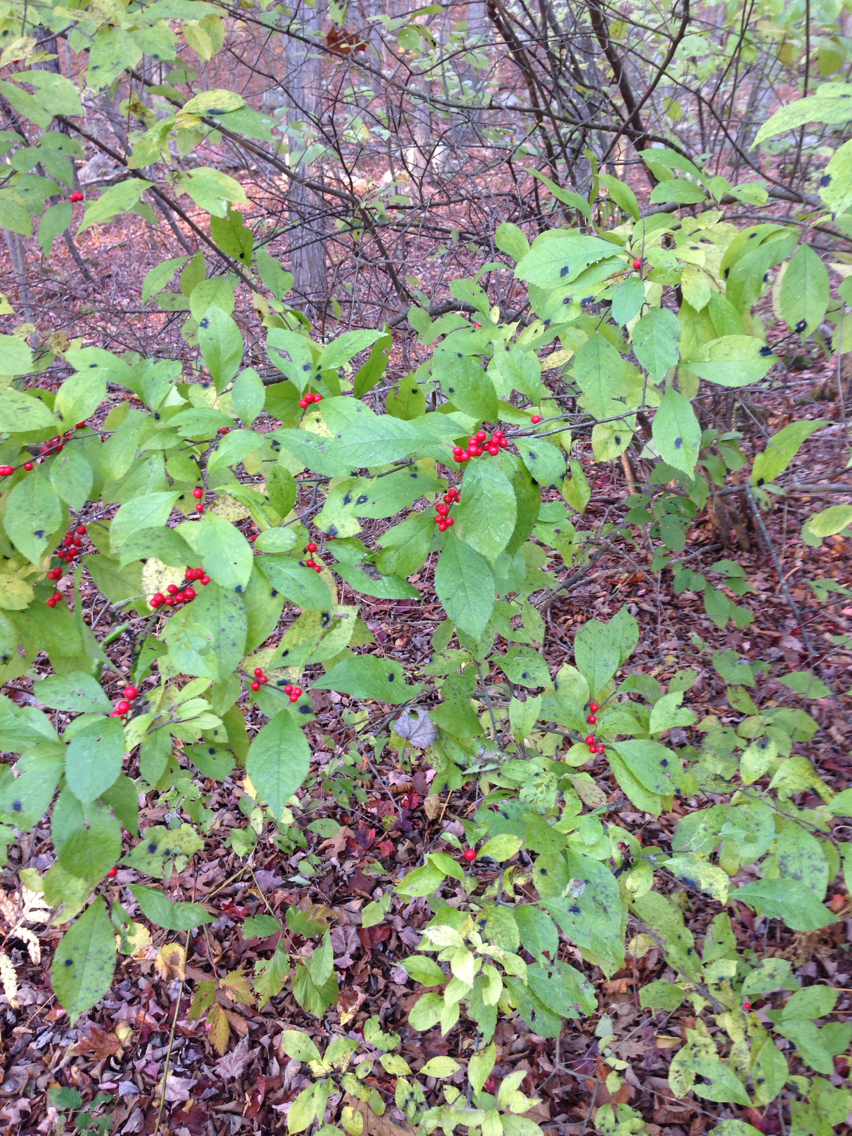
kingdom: Plantae
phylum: Tracheophyta
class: Magnoliopsida
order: Aquifoliales
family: Aquifoliaceae
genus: Ilex
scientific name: Ilex verticillata
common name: Virginia winterberry
